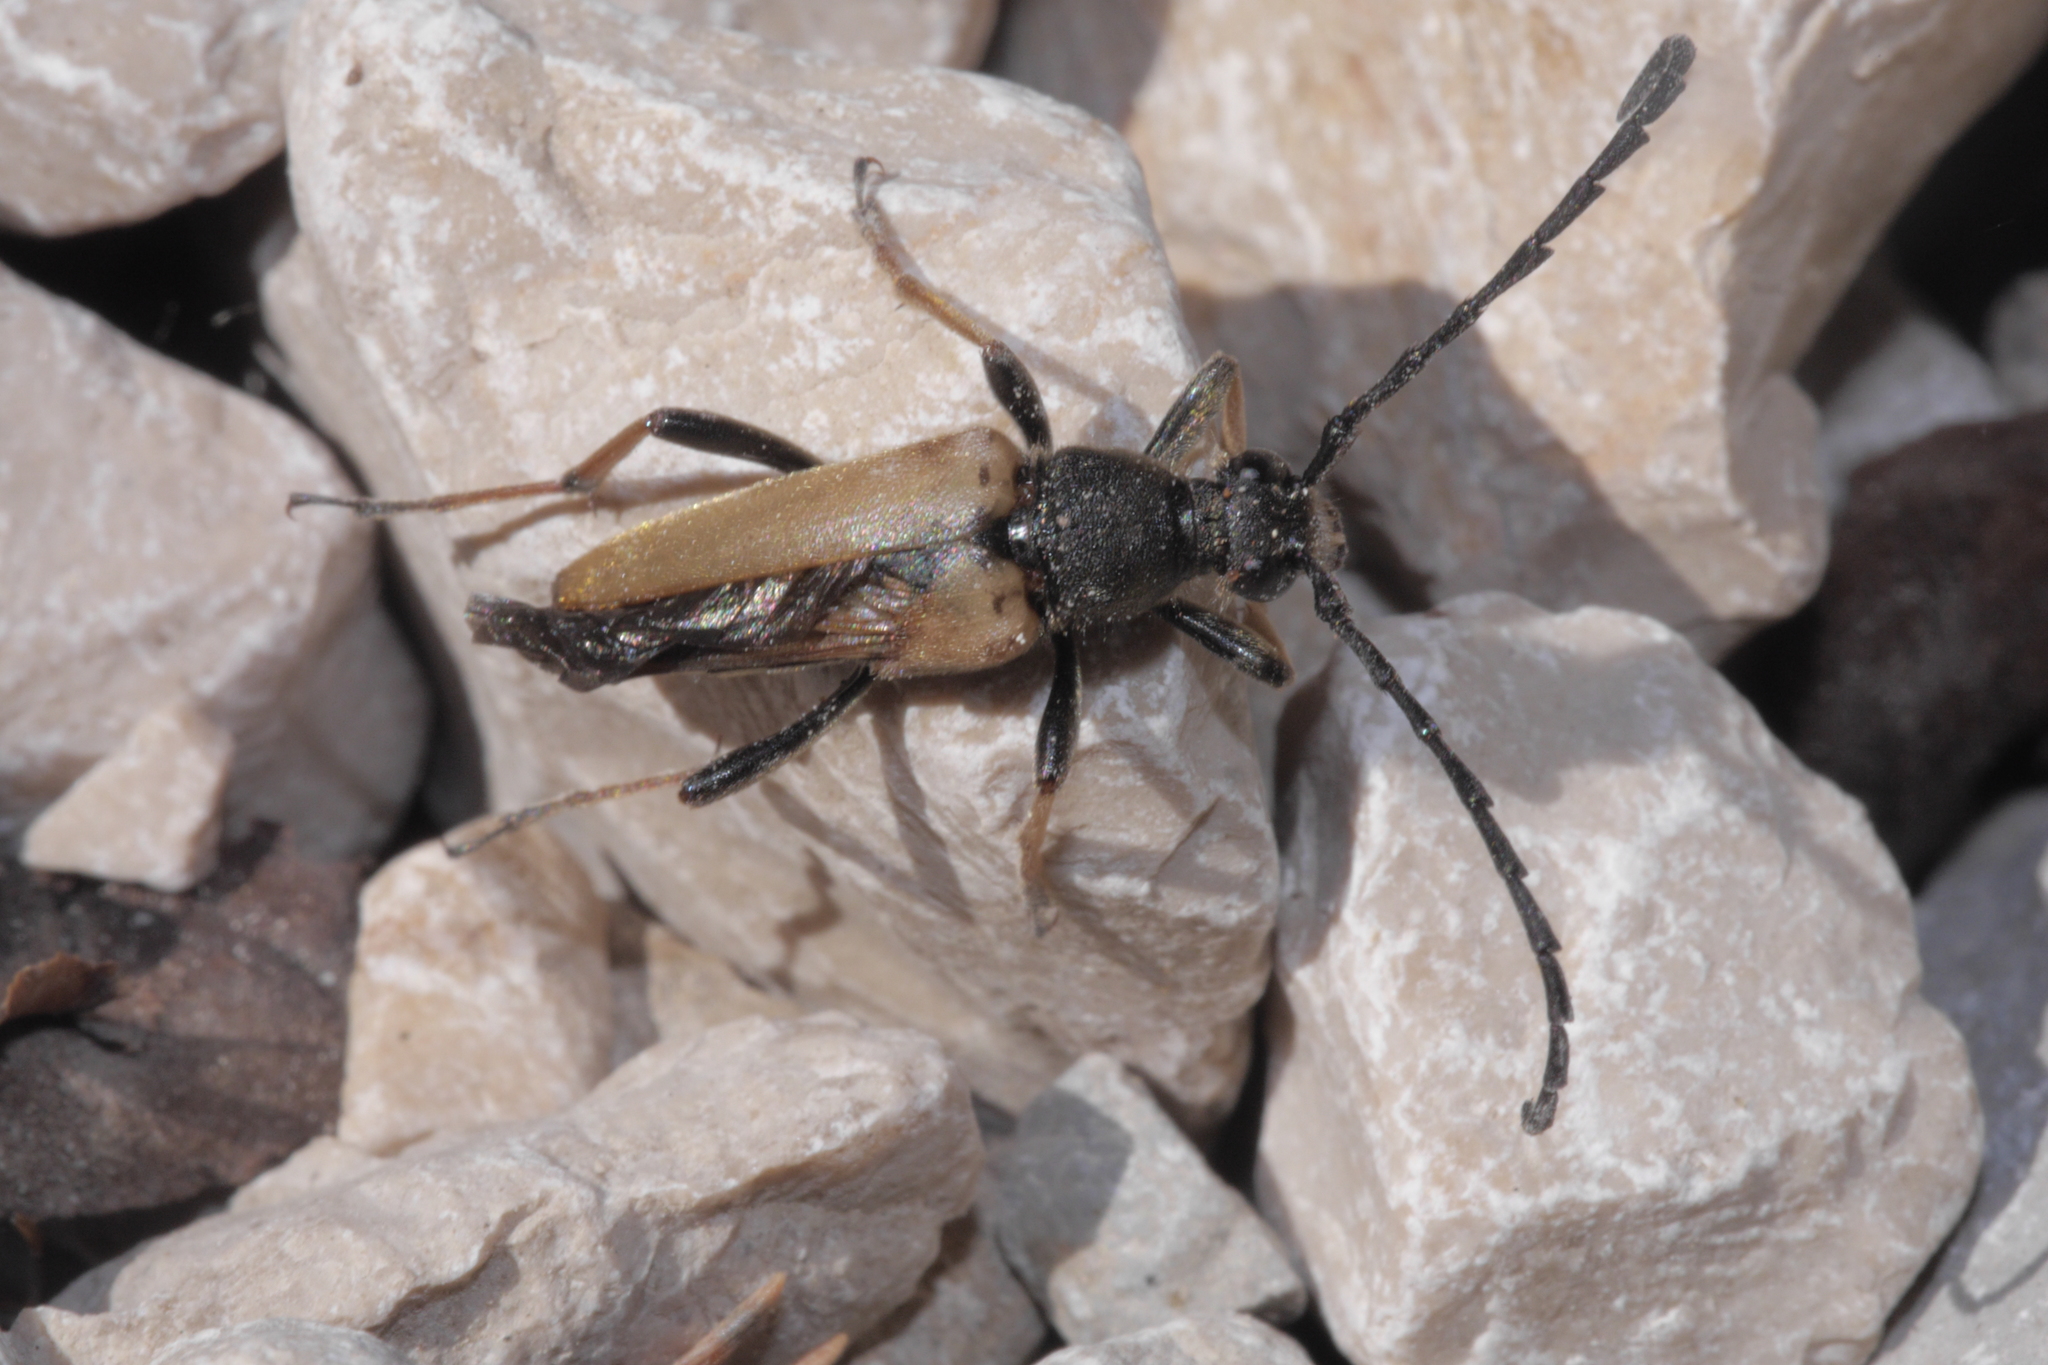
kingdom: Animalia
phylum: Arthropoda
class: Insecta
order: Coleoptera
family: Cerambycidae
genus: Stictoleptura
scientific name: Stictoleptura rubra
